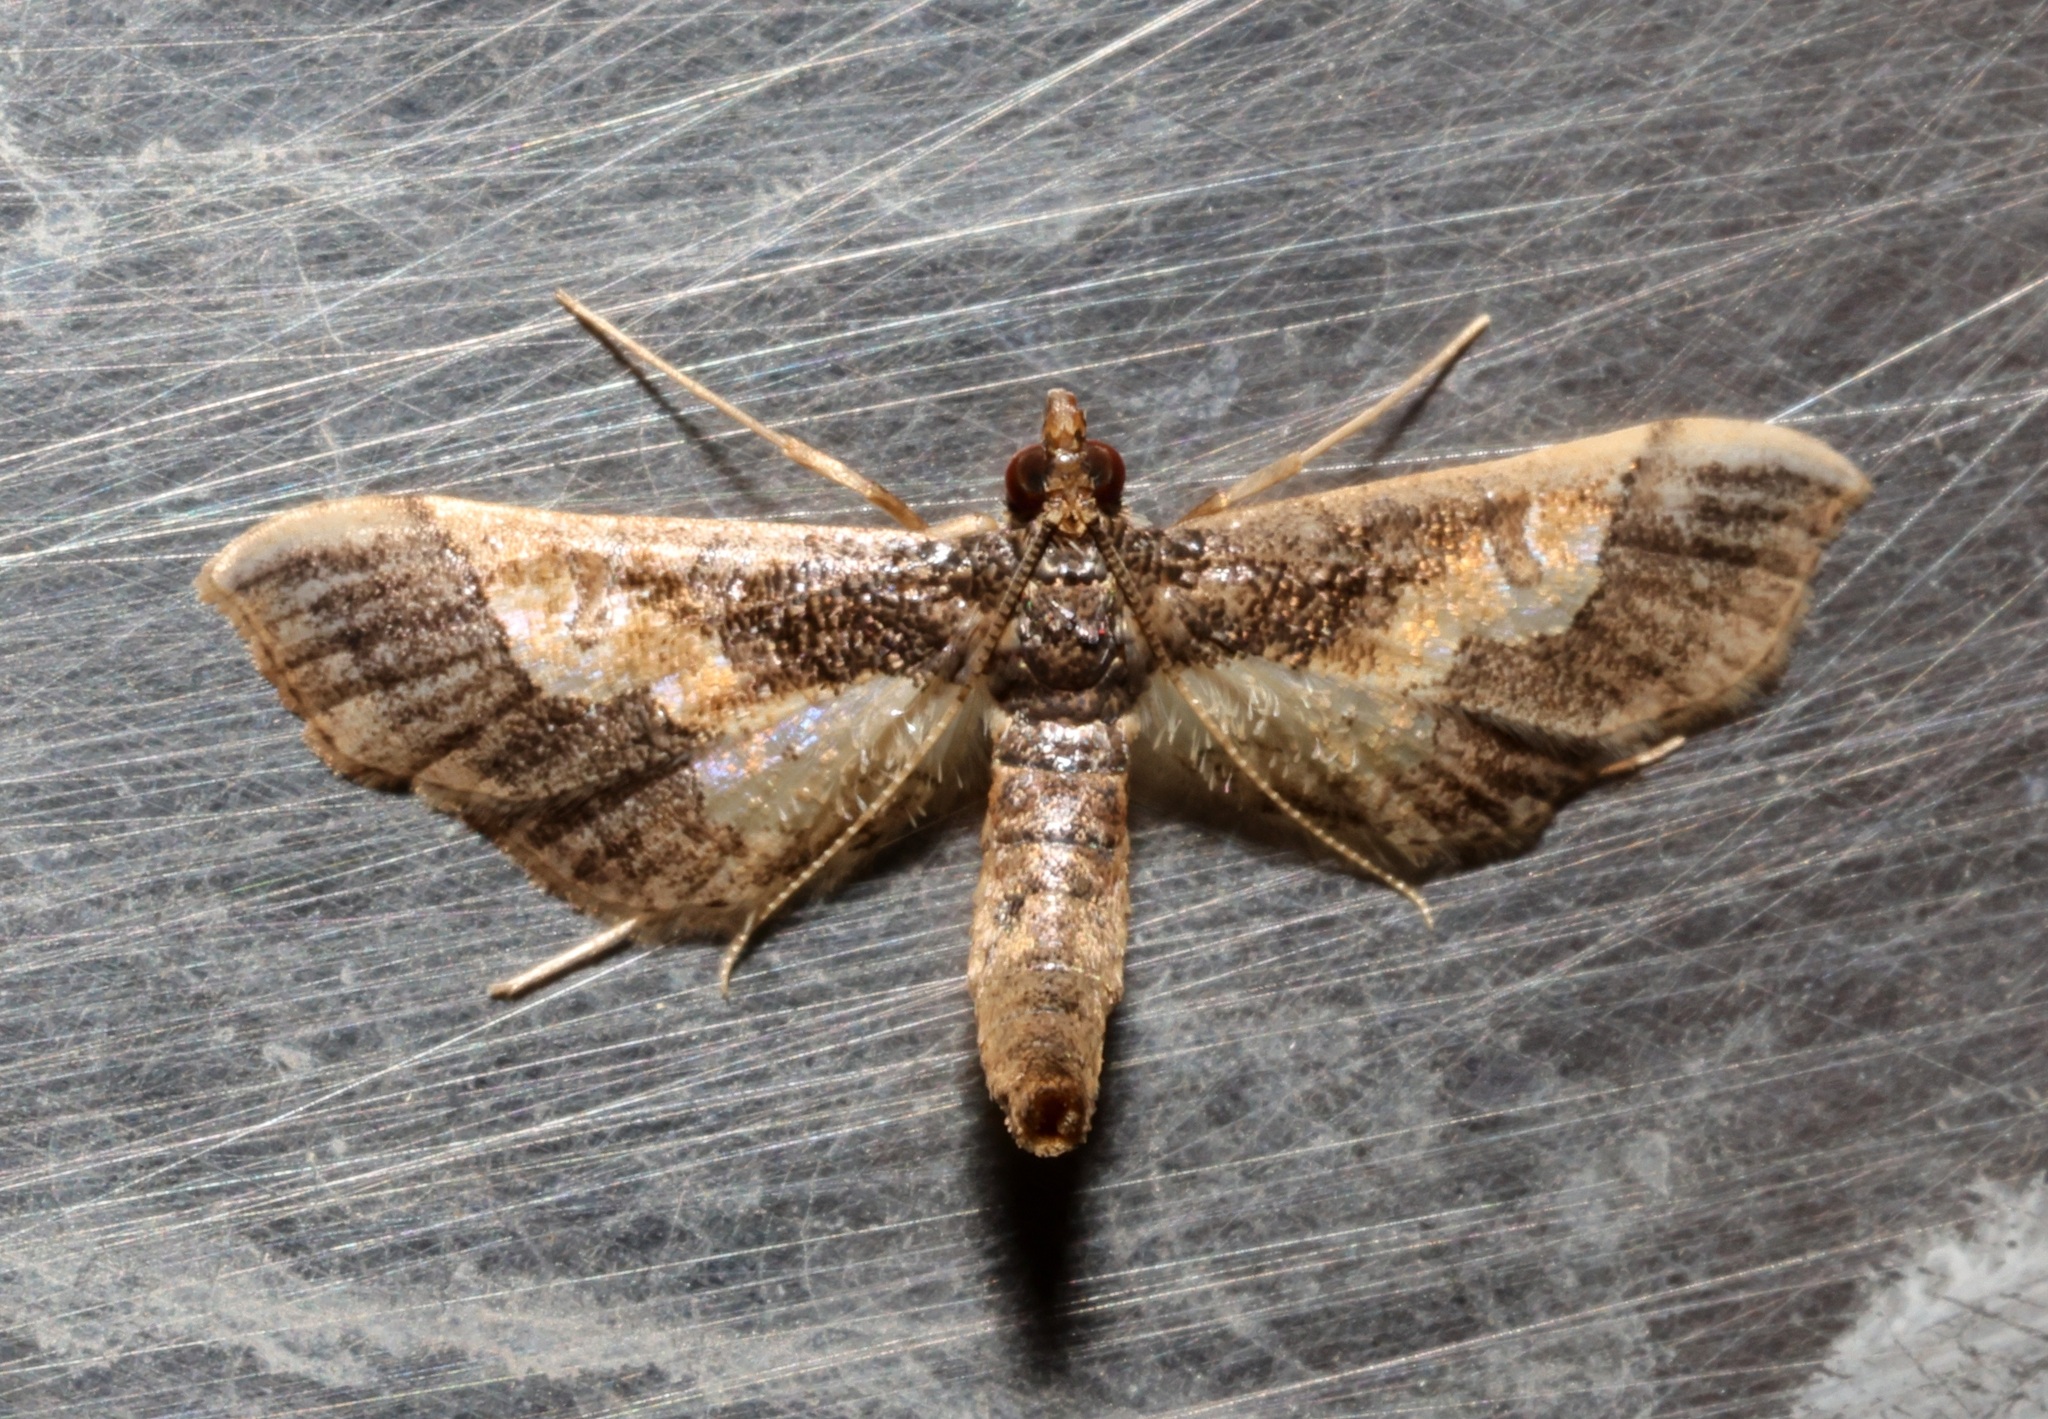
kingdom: Animalia
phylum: Arthropoda
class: Insecta
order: Lepidoptera
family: Crambidae
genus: Hydriris
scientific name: Hydriris ornatalis
